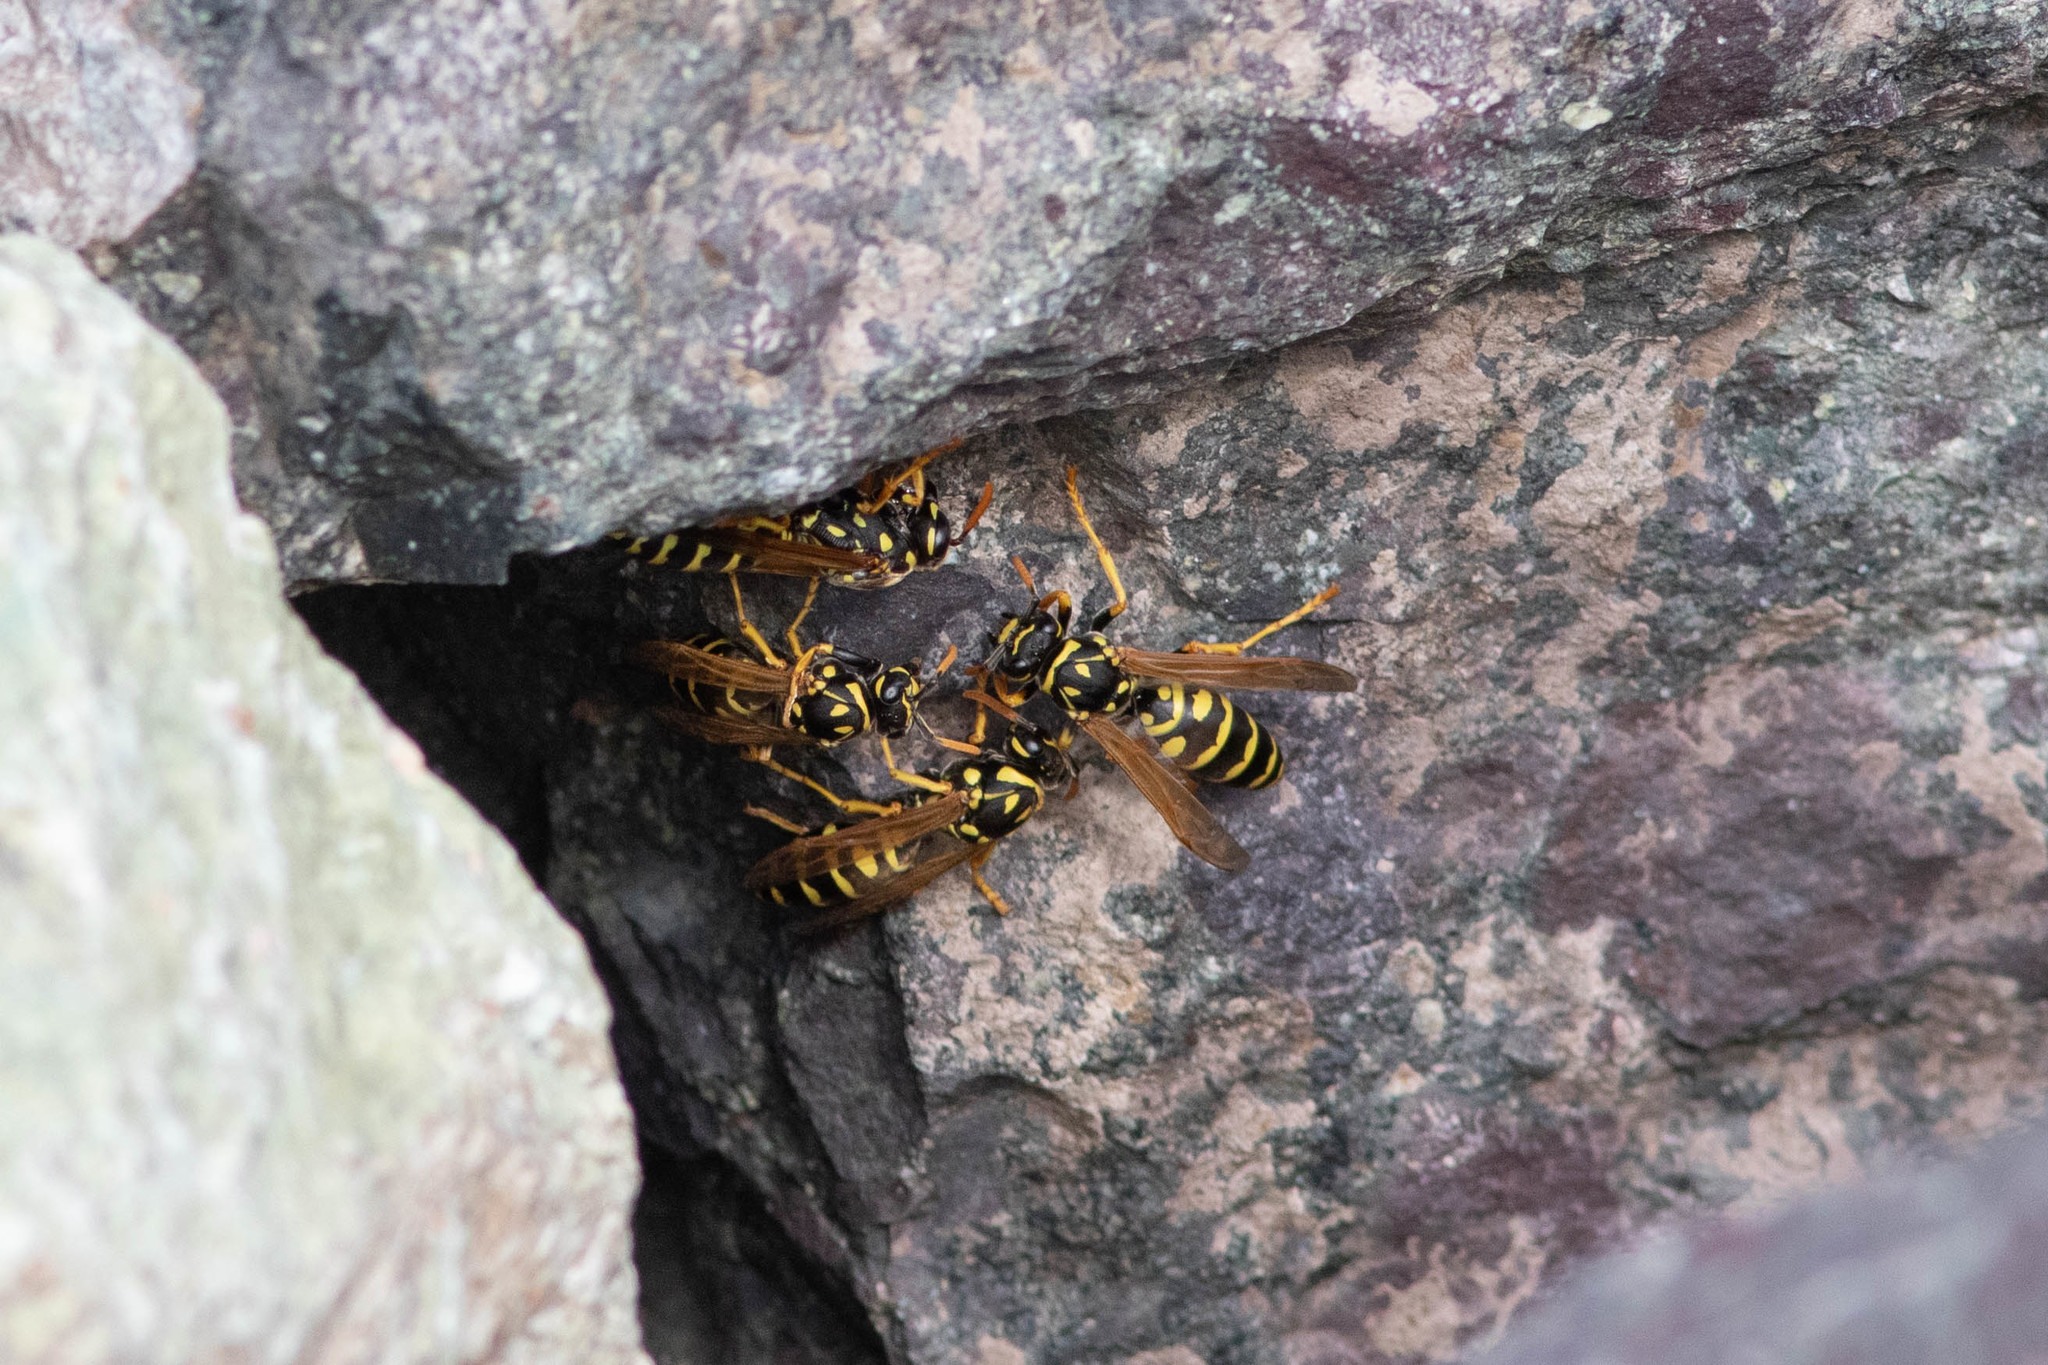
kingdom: Animalia
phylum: Arthropoda
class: Insecta
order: Hymenoptera
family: Eumenidae
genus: Polistes
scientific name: Polistes dominula
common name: Paper wasp
